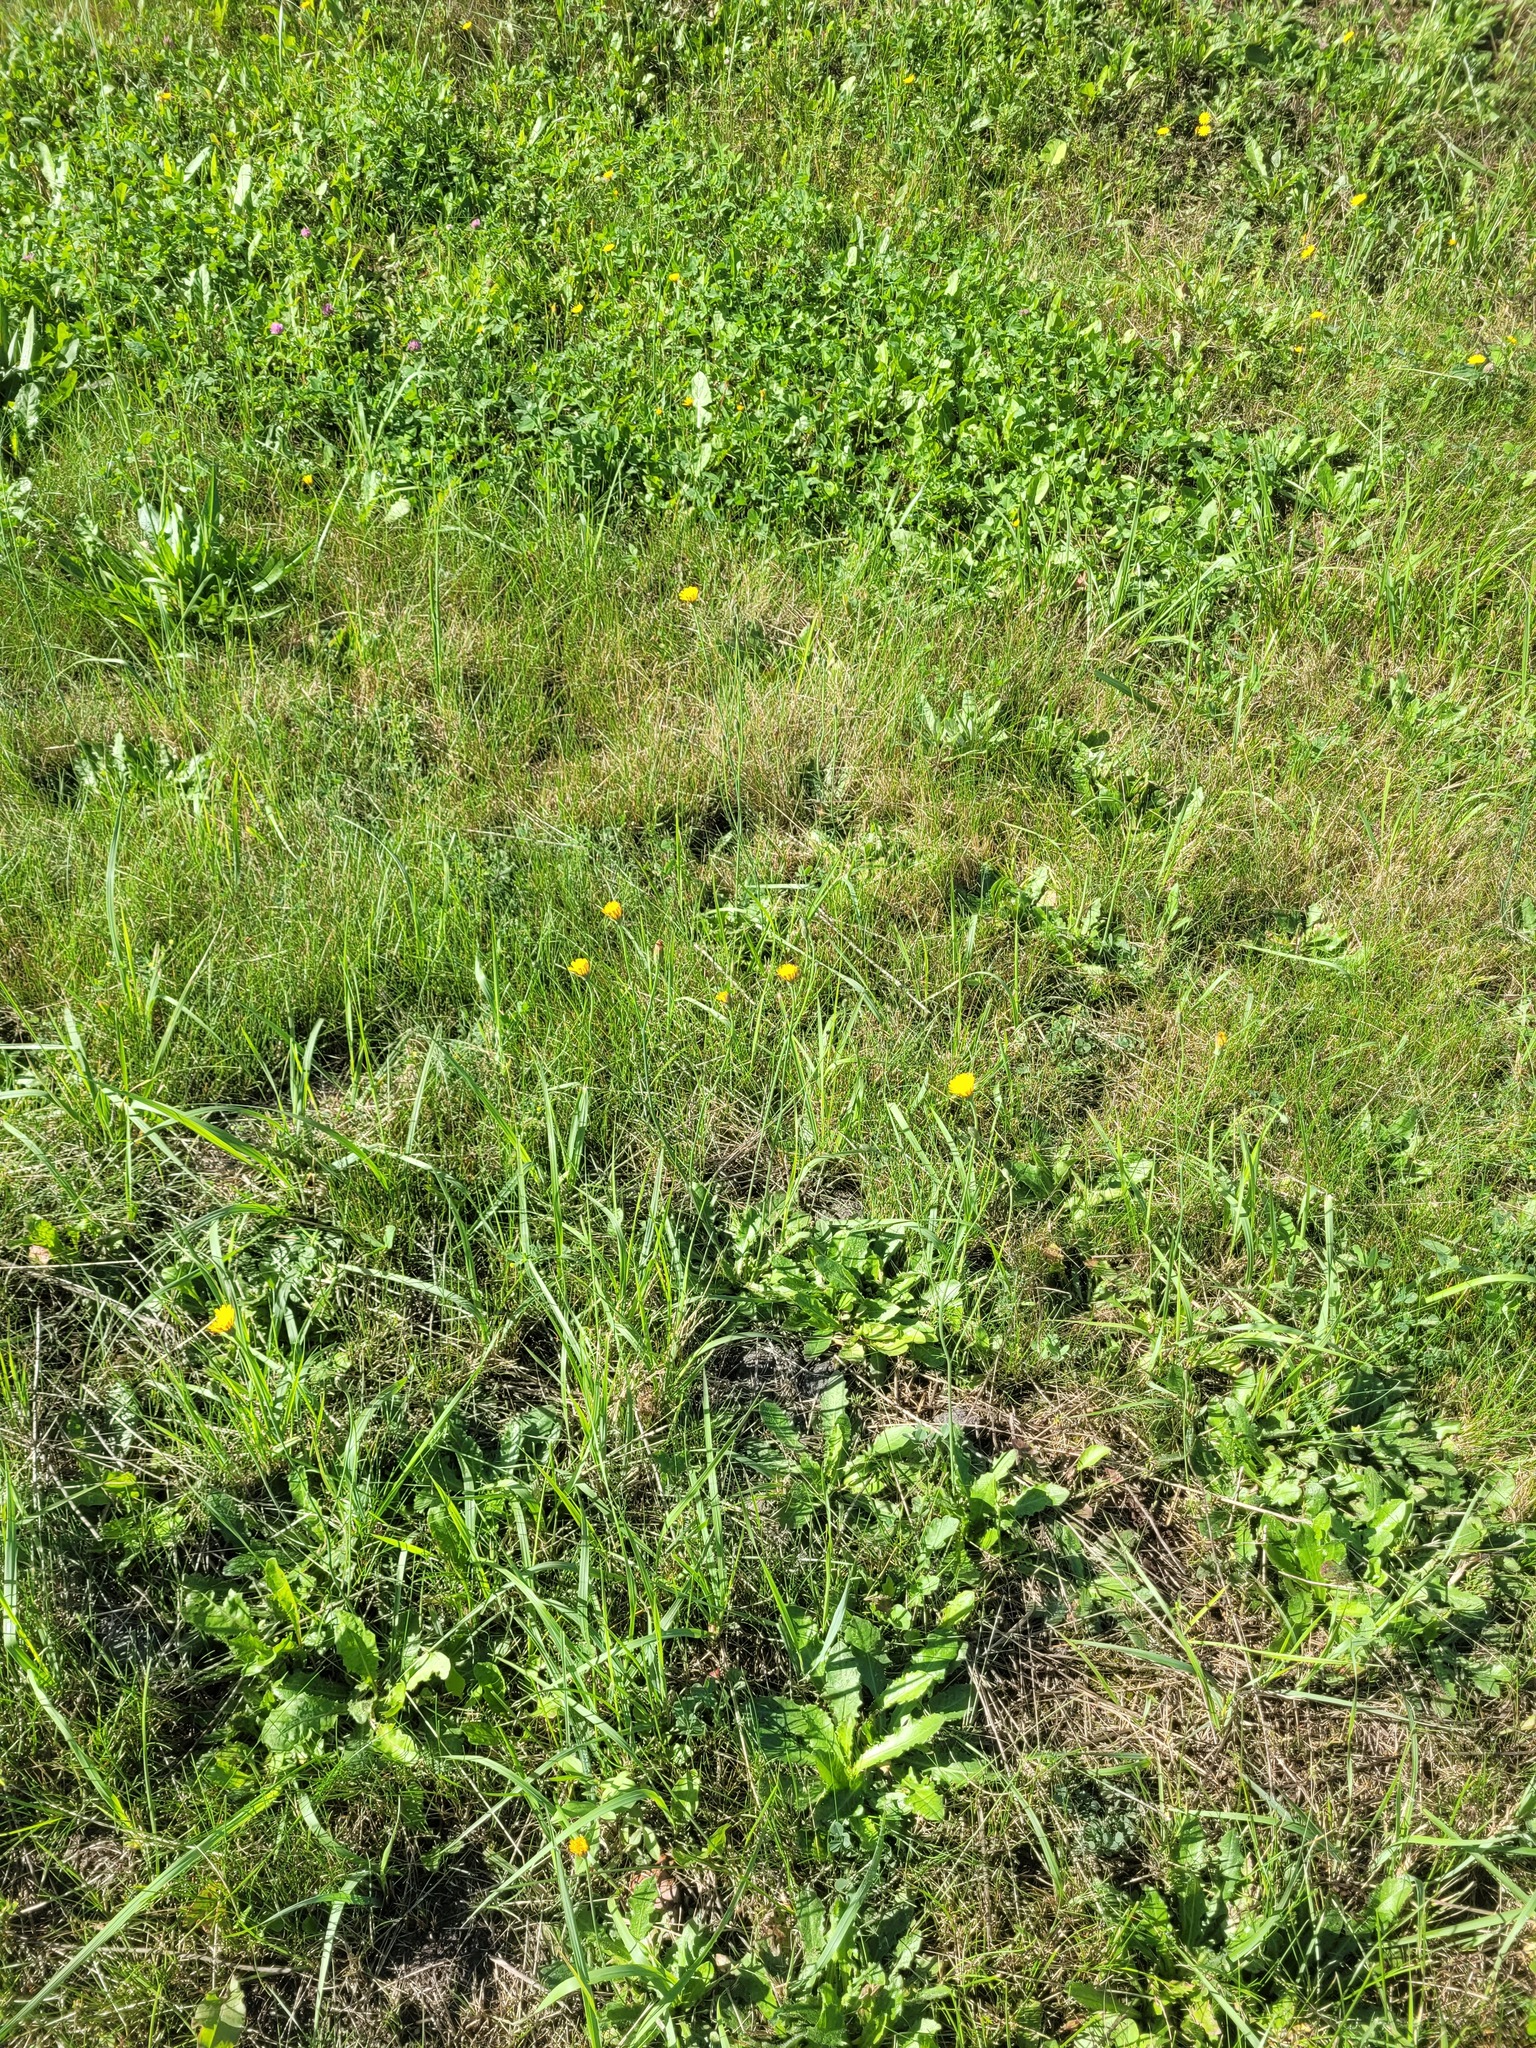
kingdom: Plantae
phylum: Tracheophyta
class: Magnoliopsida
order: Asterales
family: Asteraceae
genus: Hypochaeris
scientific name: Hypochaeris radicata
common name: Flatweed
